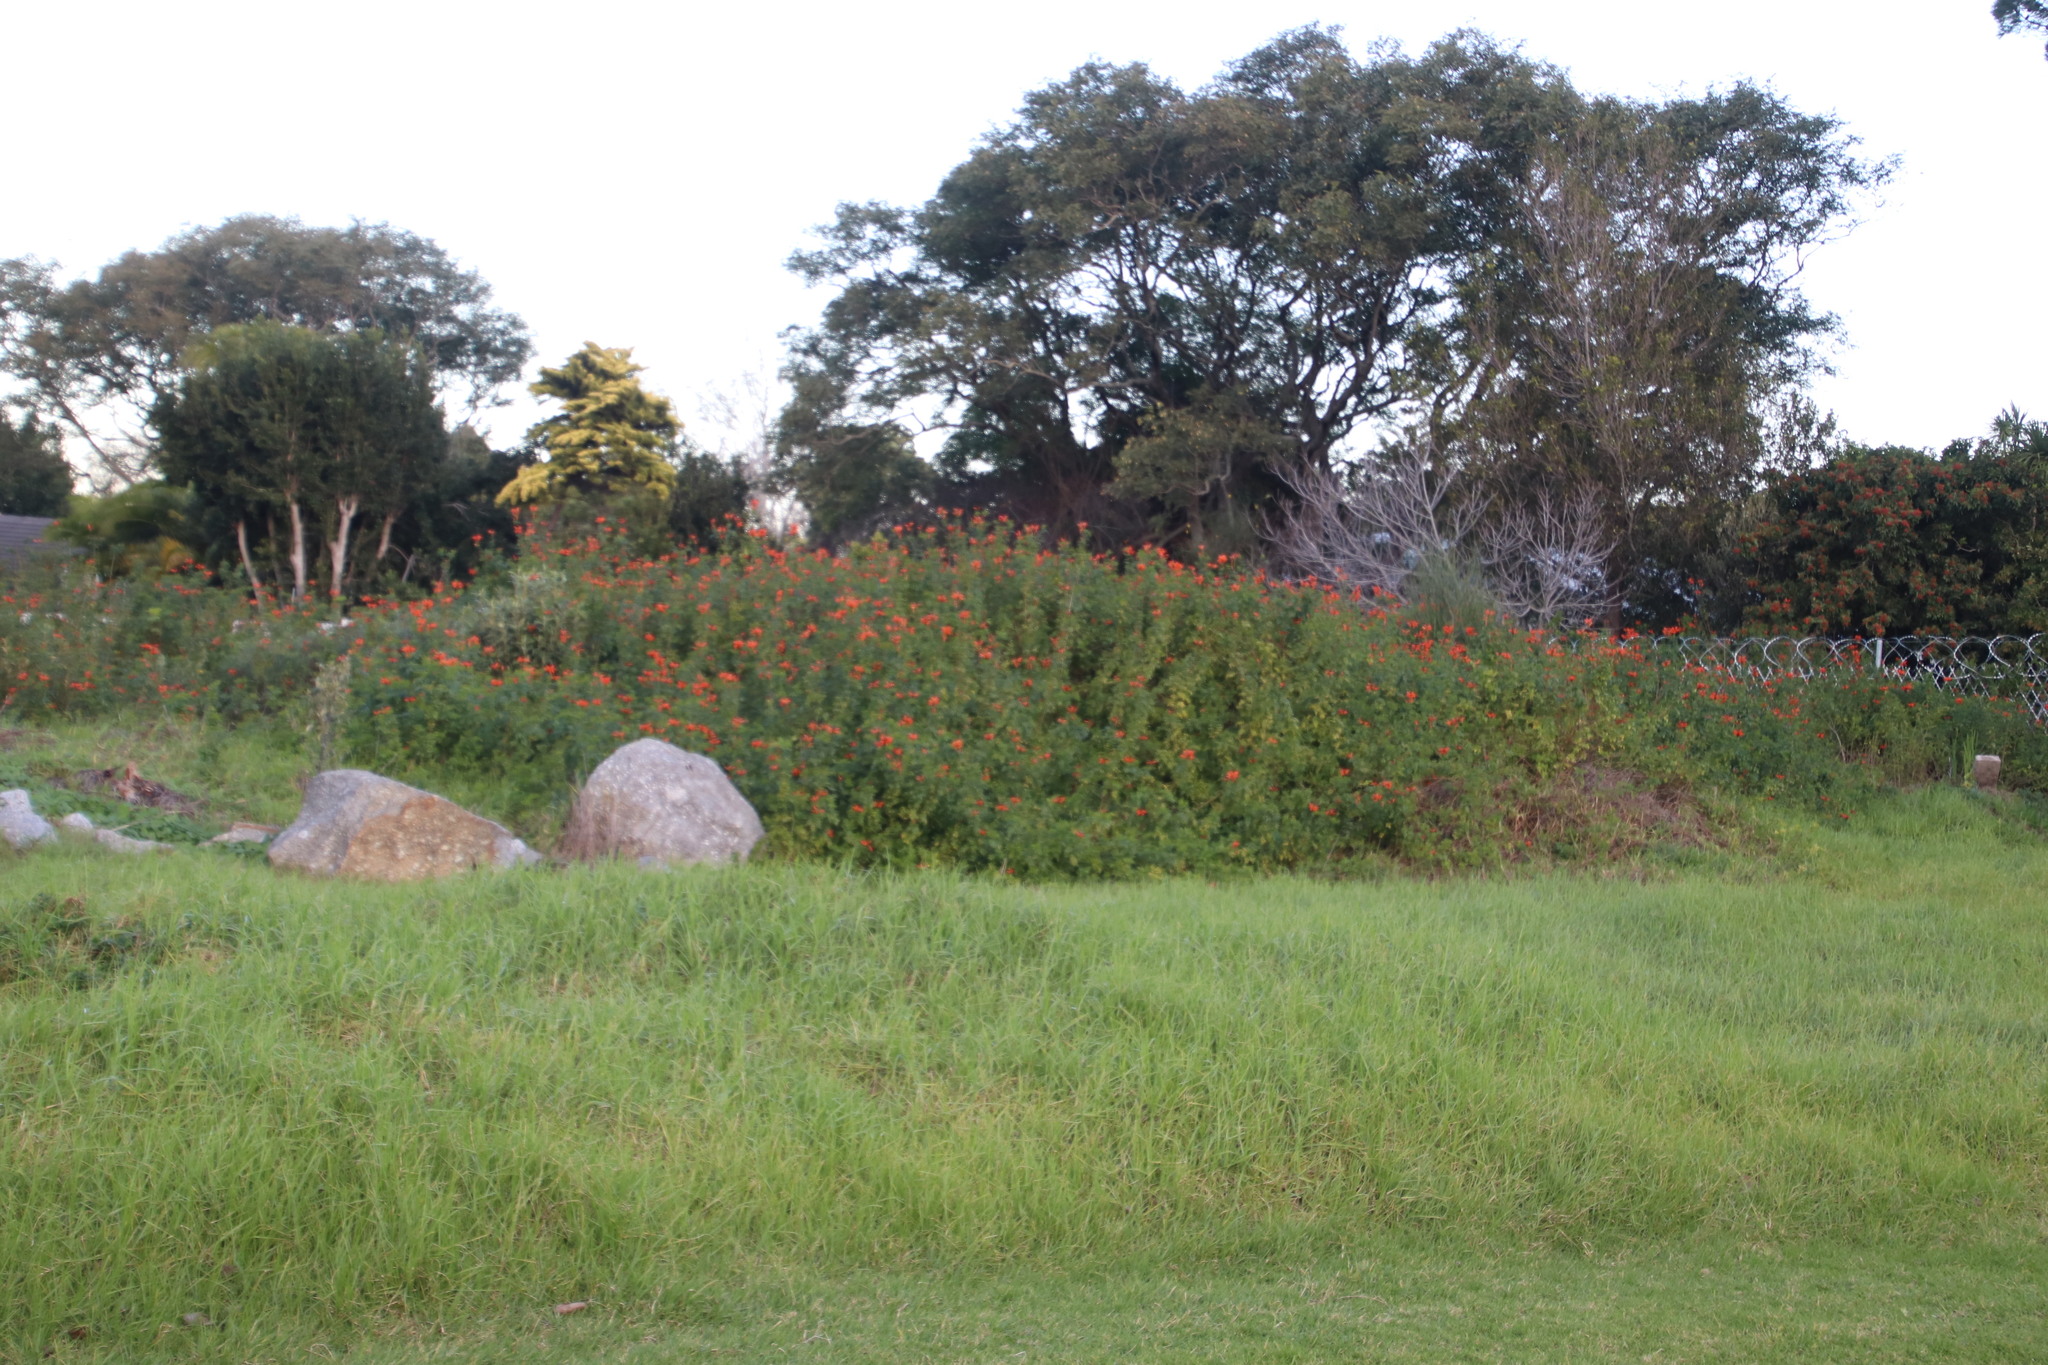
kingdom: Plantae
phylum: Tracheophyta
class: Magnoliopsida
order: Lamiales
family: Bignoniaceae
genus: Tecomaria
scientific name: Tecomaria capensis
